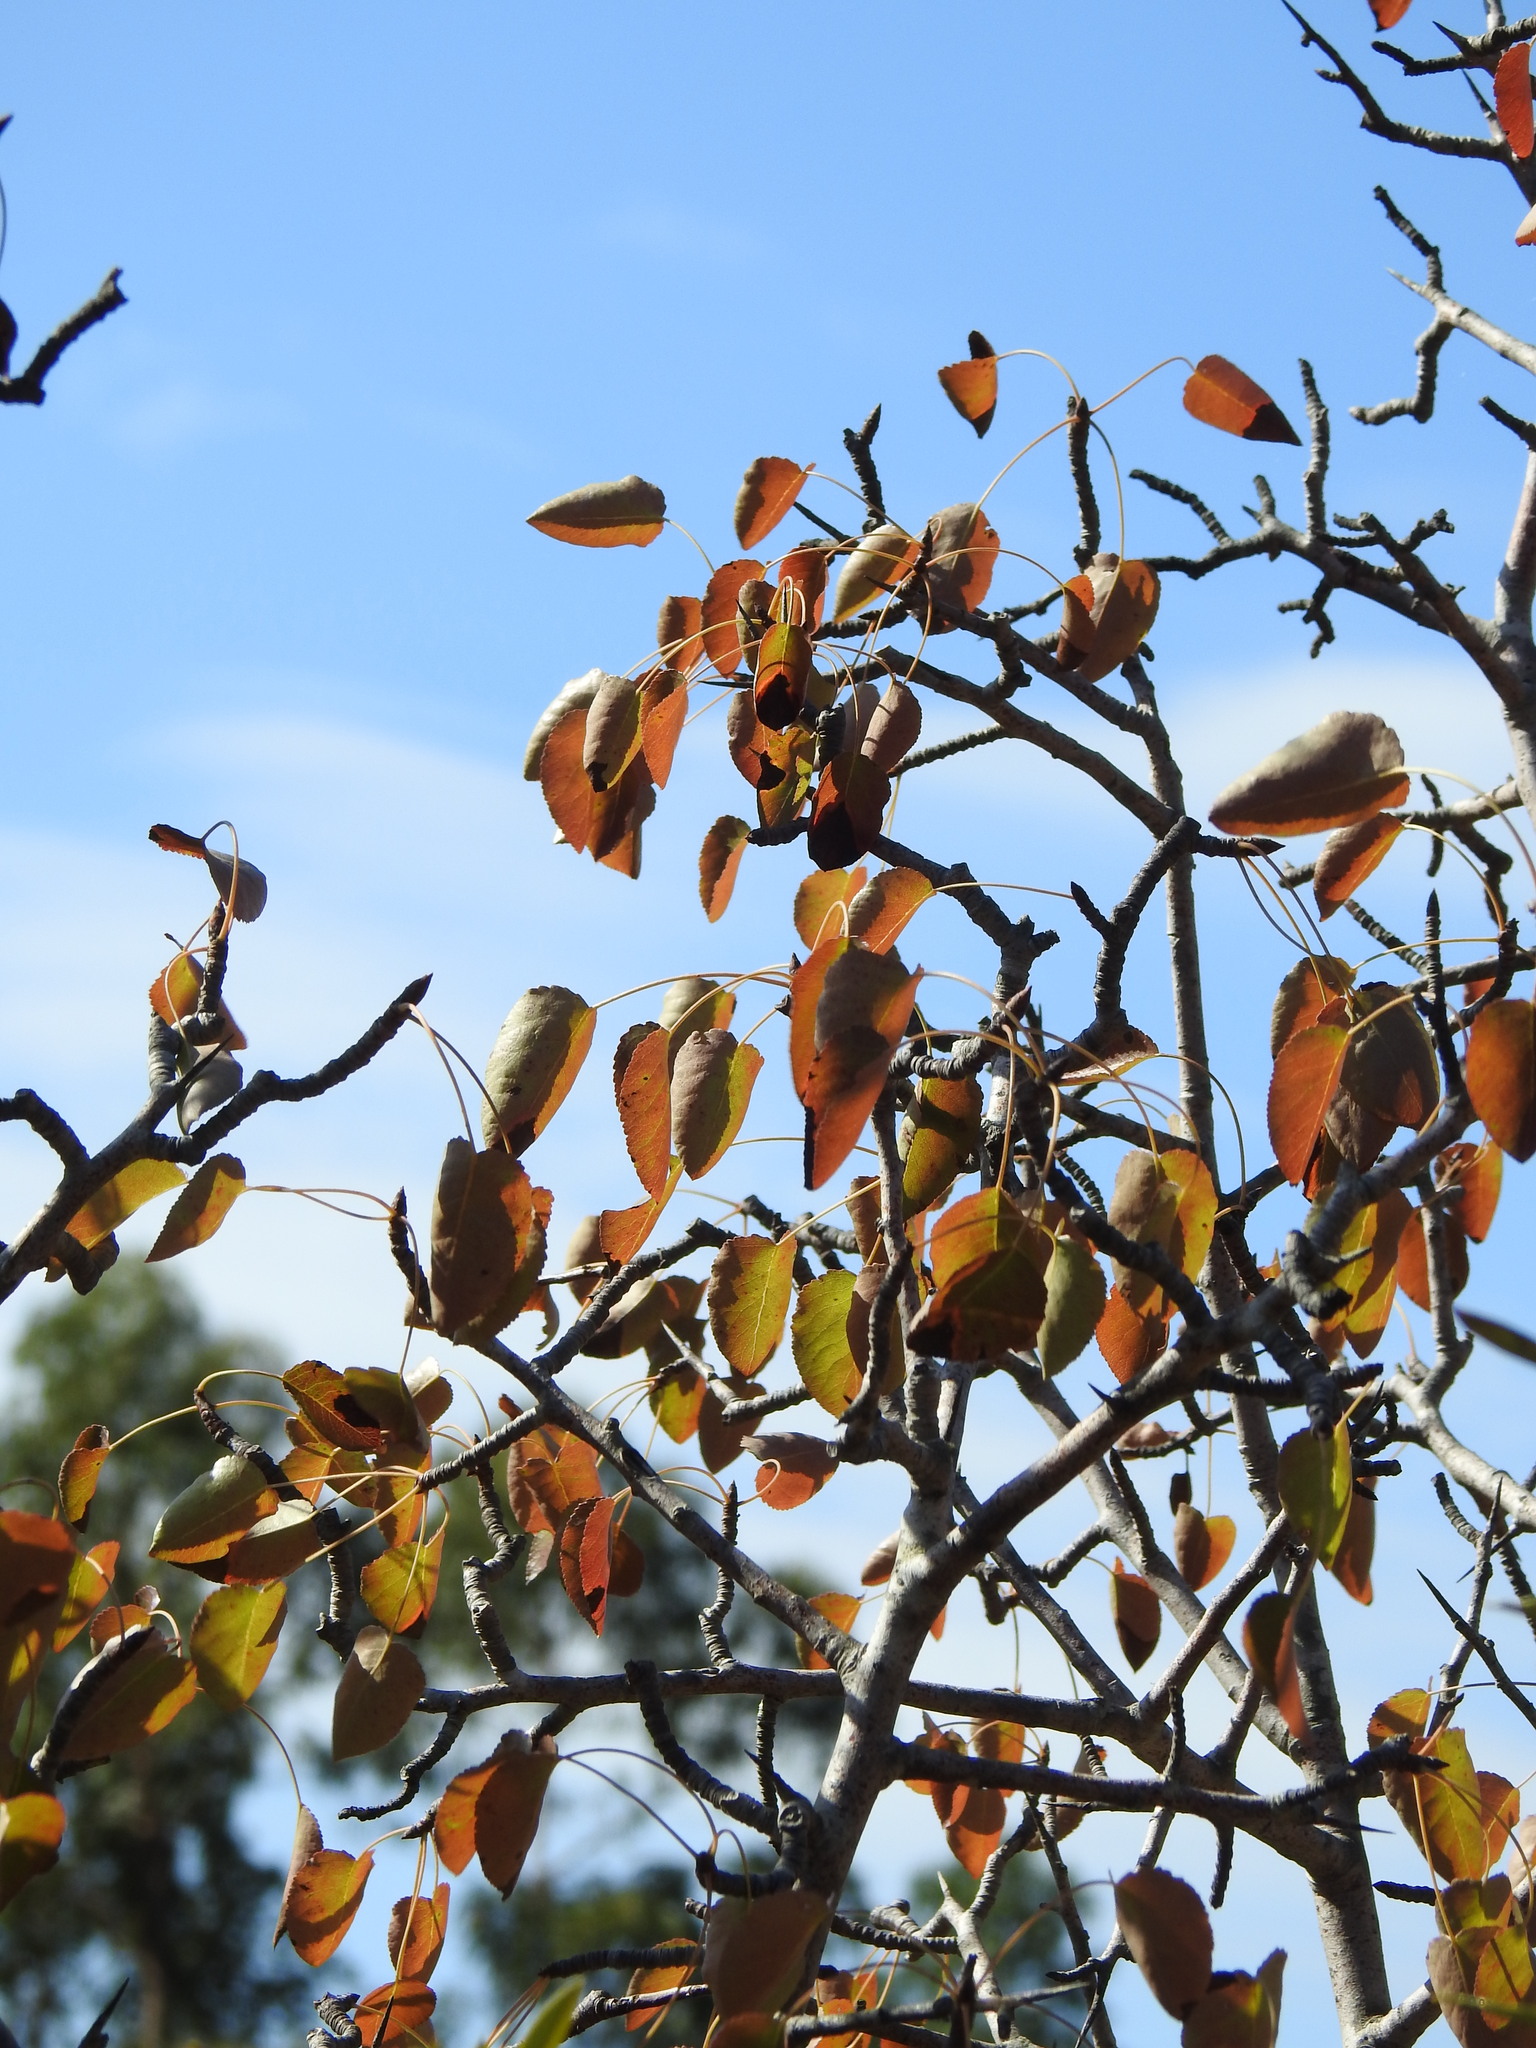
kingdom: Plantae
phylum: Tracheophyta
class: Magnoliopsida
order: Rosales
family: Rosaceae
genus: Pyrus
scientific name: Pyrus bourgaeana
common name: Iberian pear
